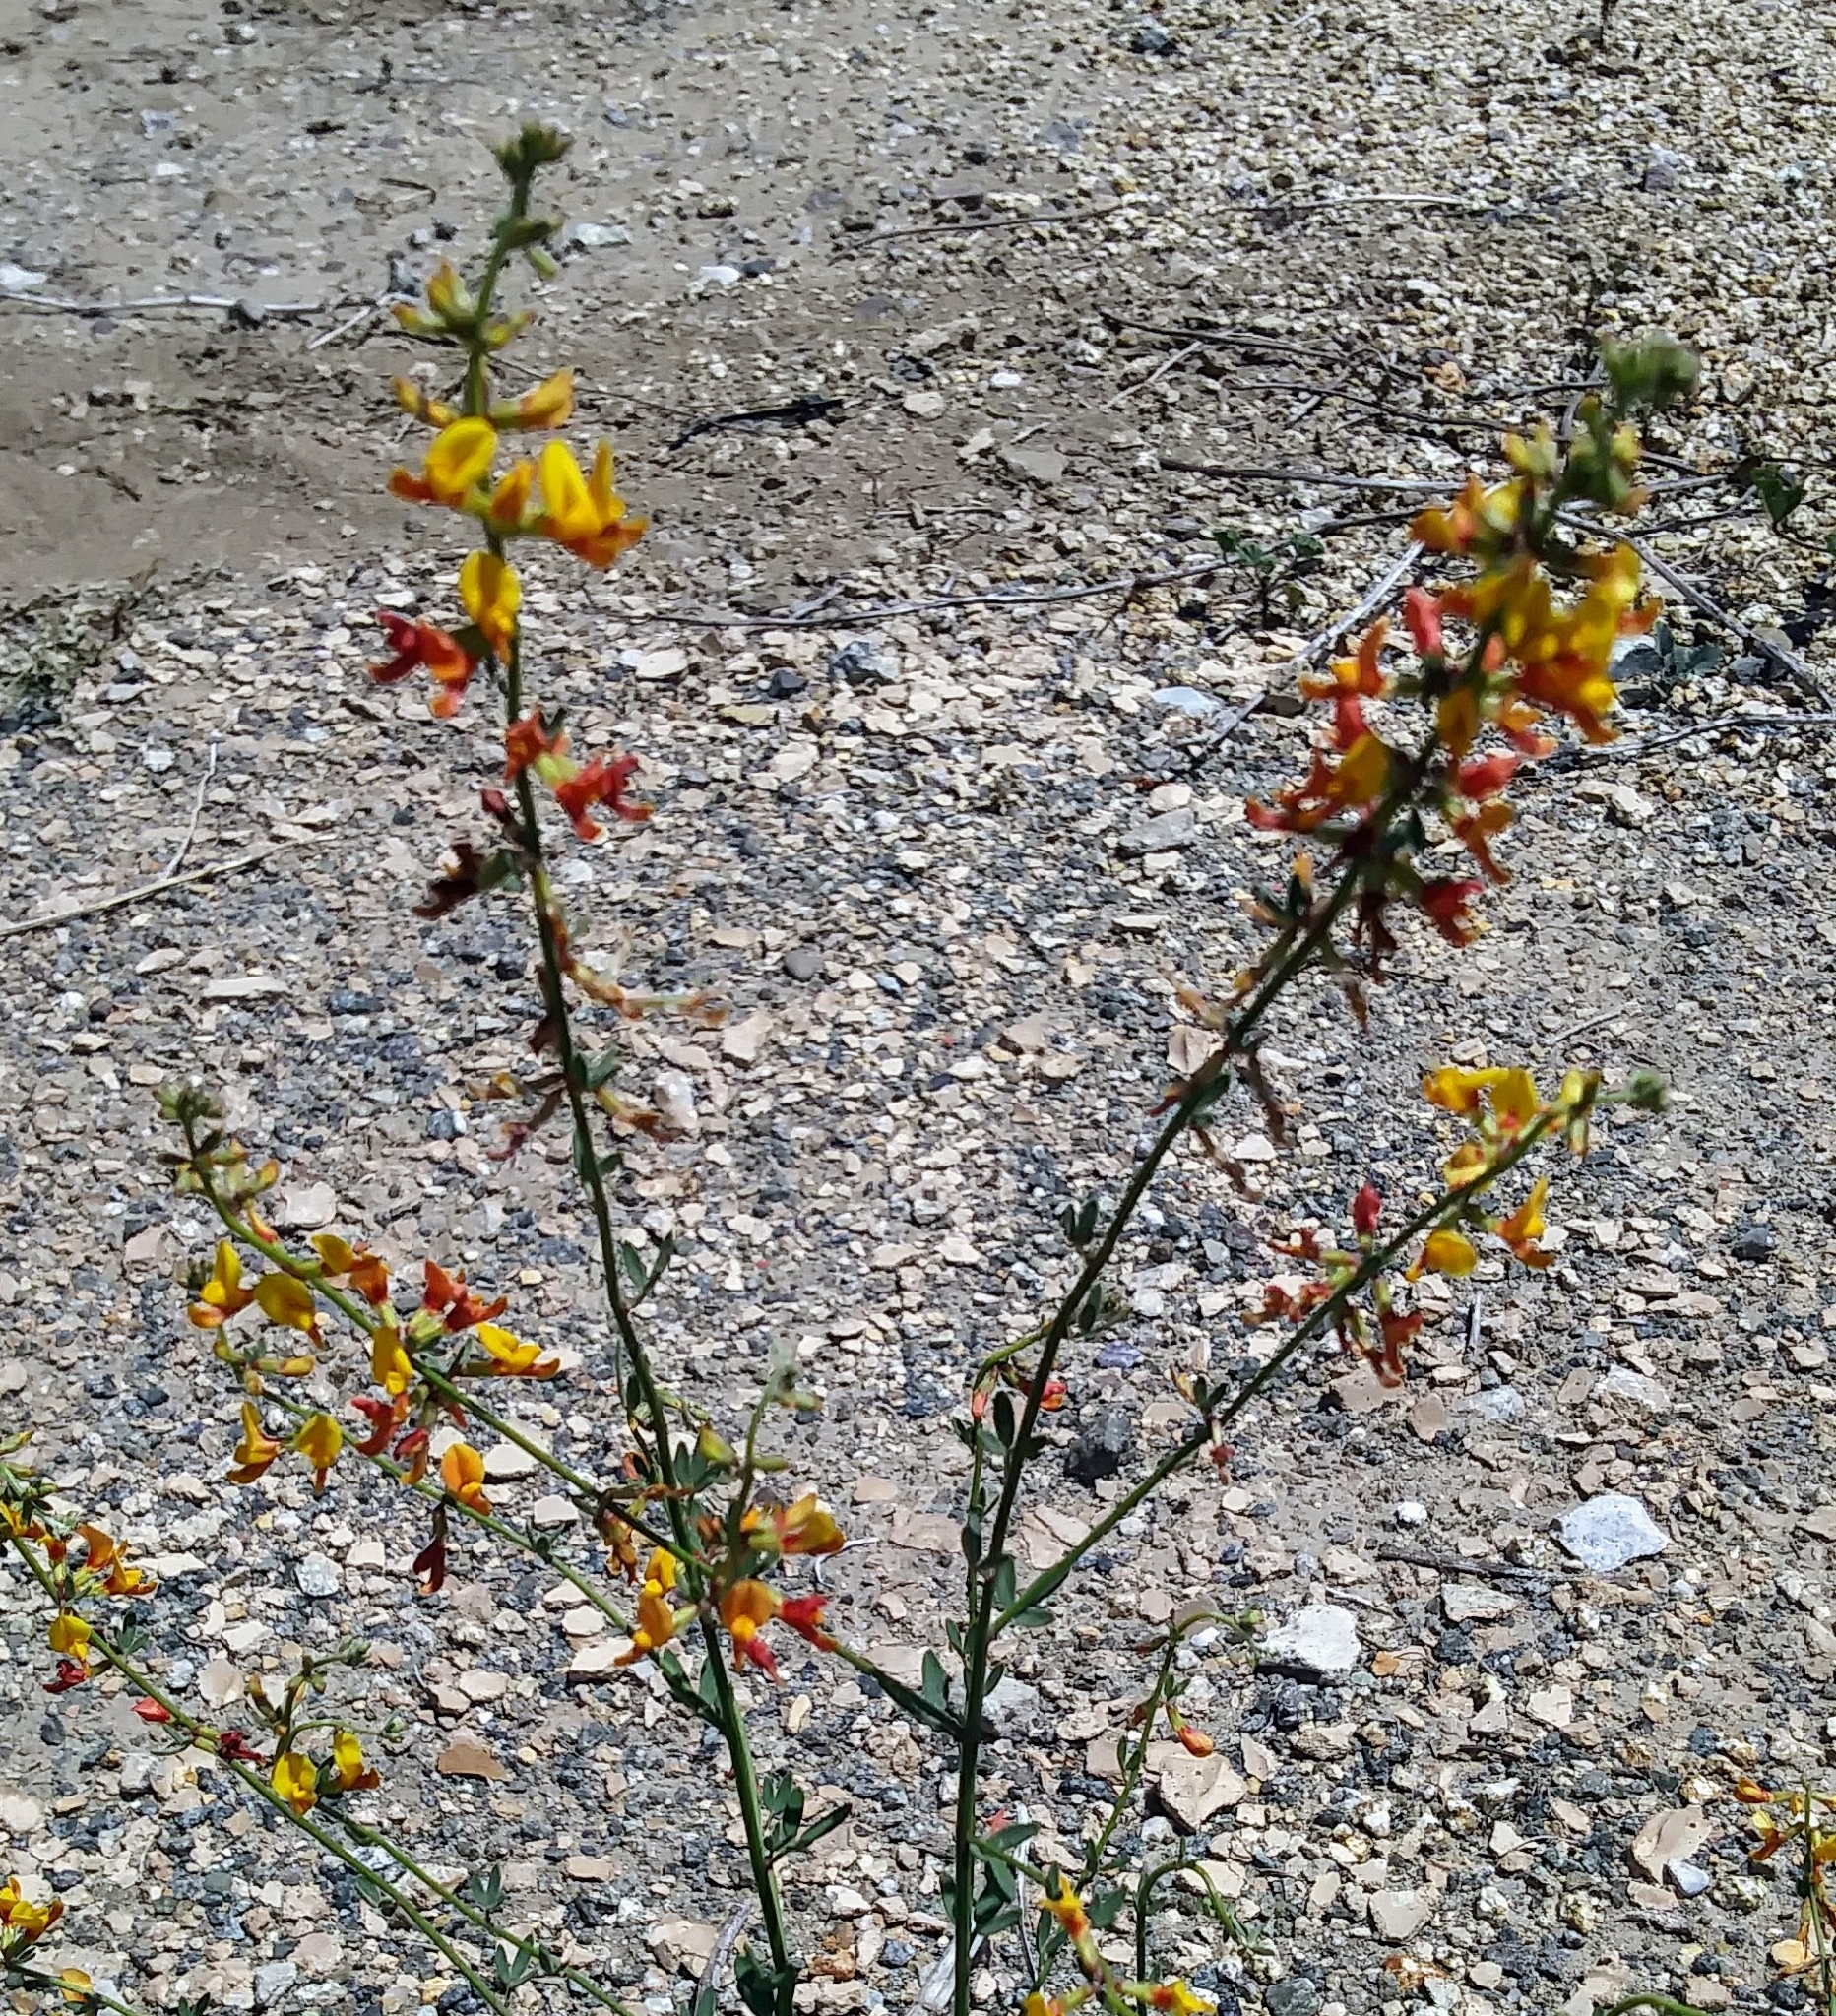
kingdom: Plantae
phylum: Tracheophyta
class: Magnoliopsida
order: Fabales
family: Fabaceae
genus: Acmispon
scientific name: Acmispon glaber
